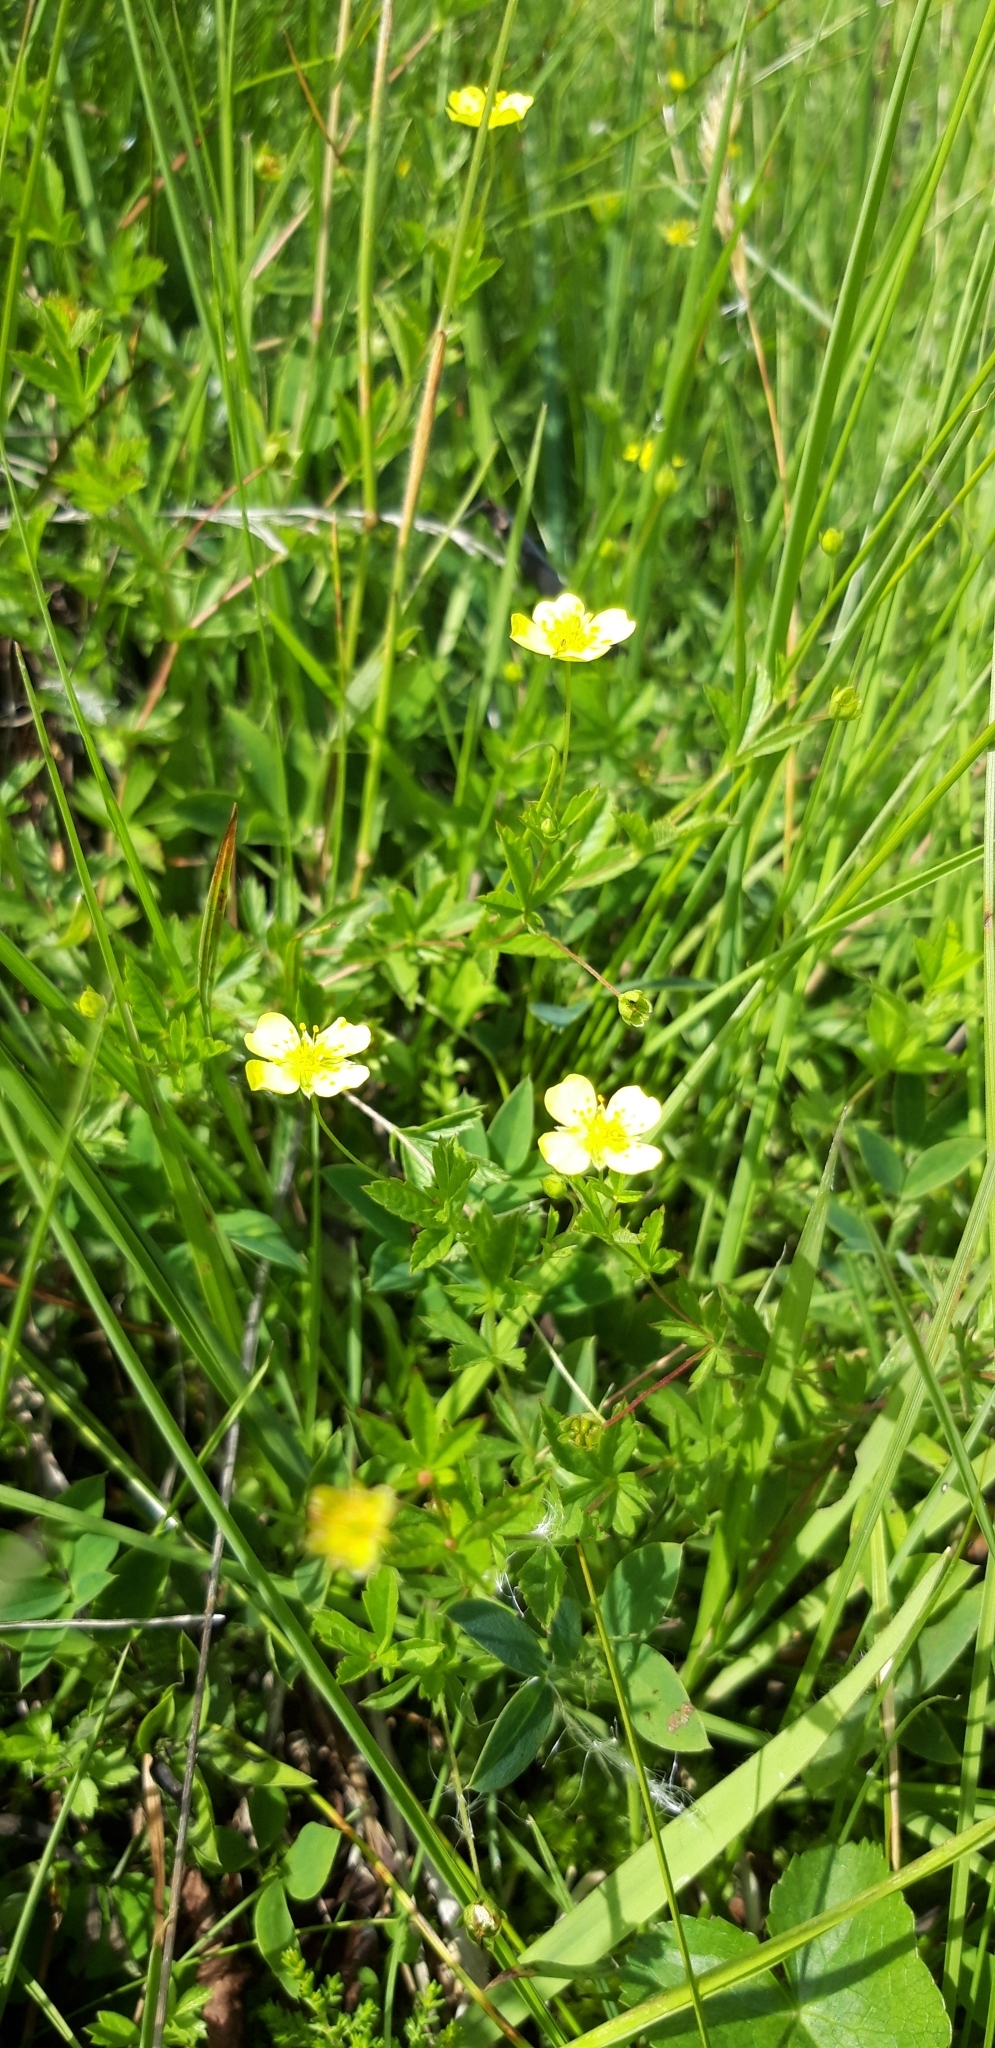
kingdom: Plantae
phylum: Tracheophyta
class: Magnoliopsida
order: Rosales
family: Rosaceae
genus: Potentilla
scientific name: Potentilla erecta
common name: Tormentil
